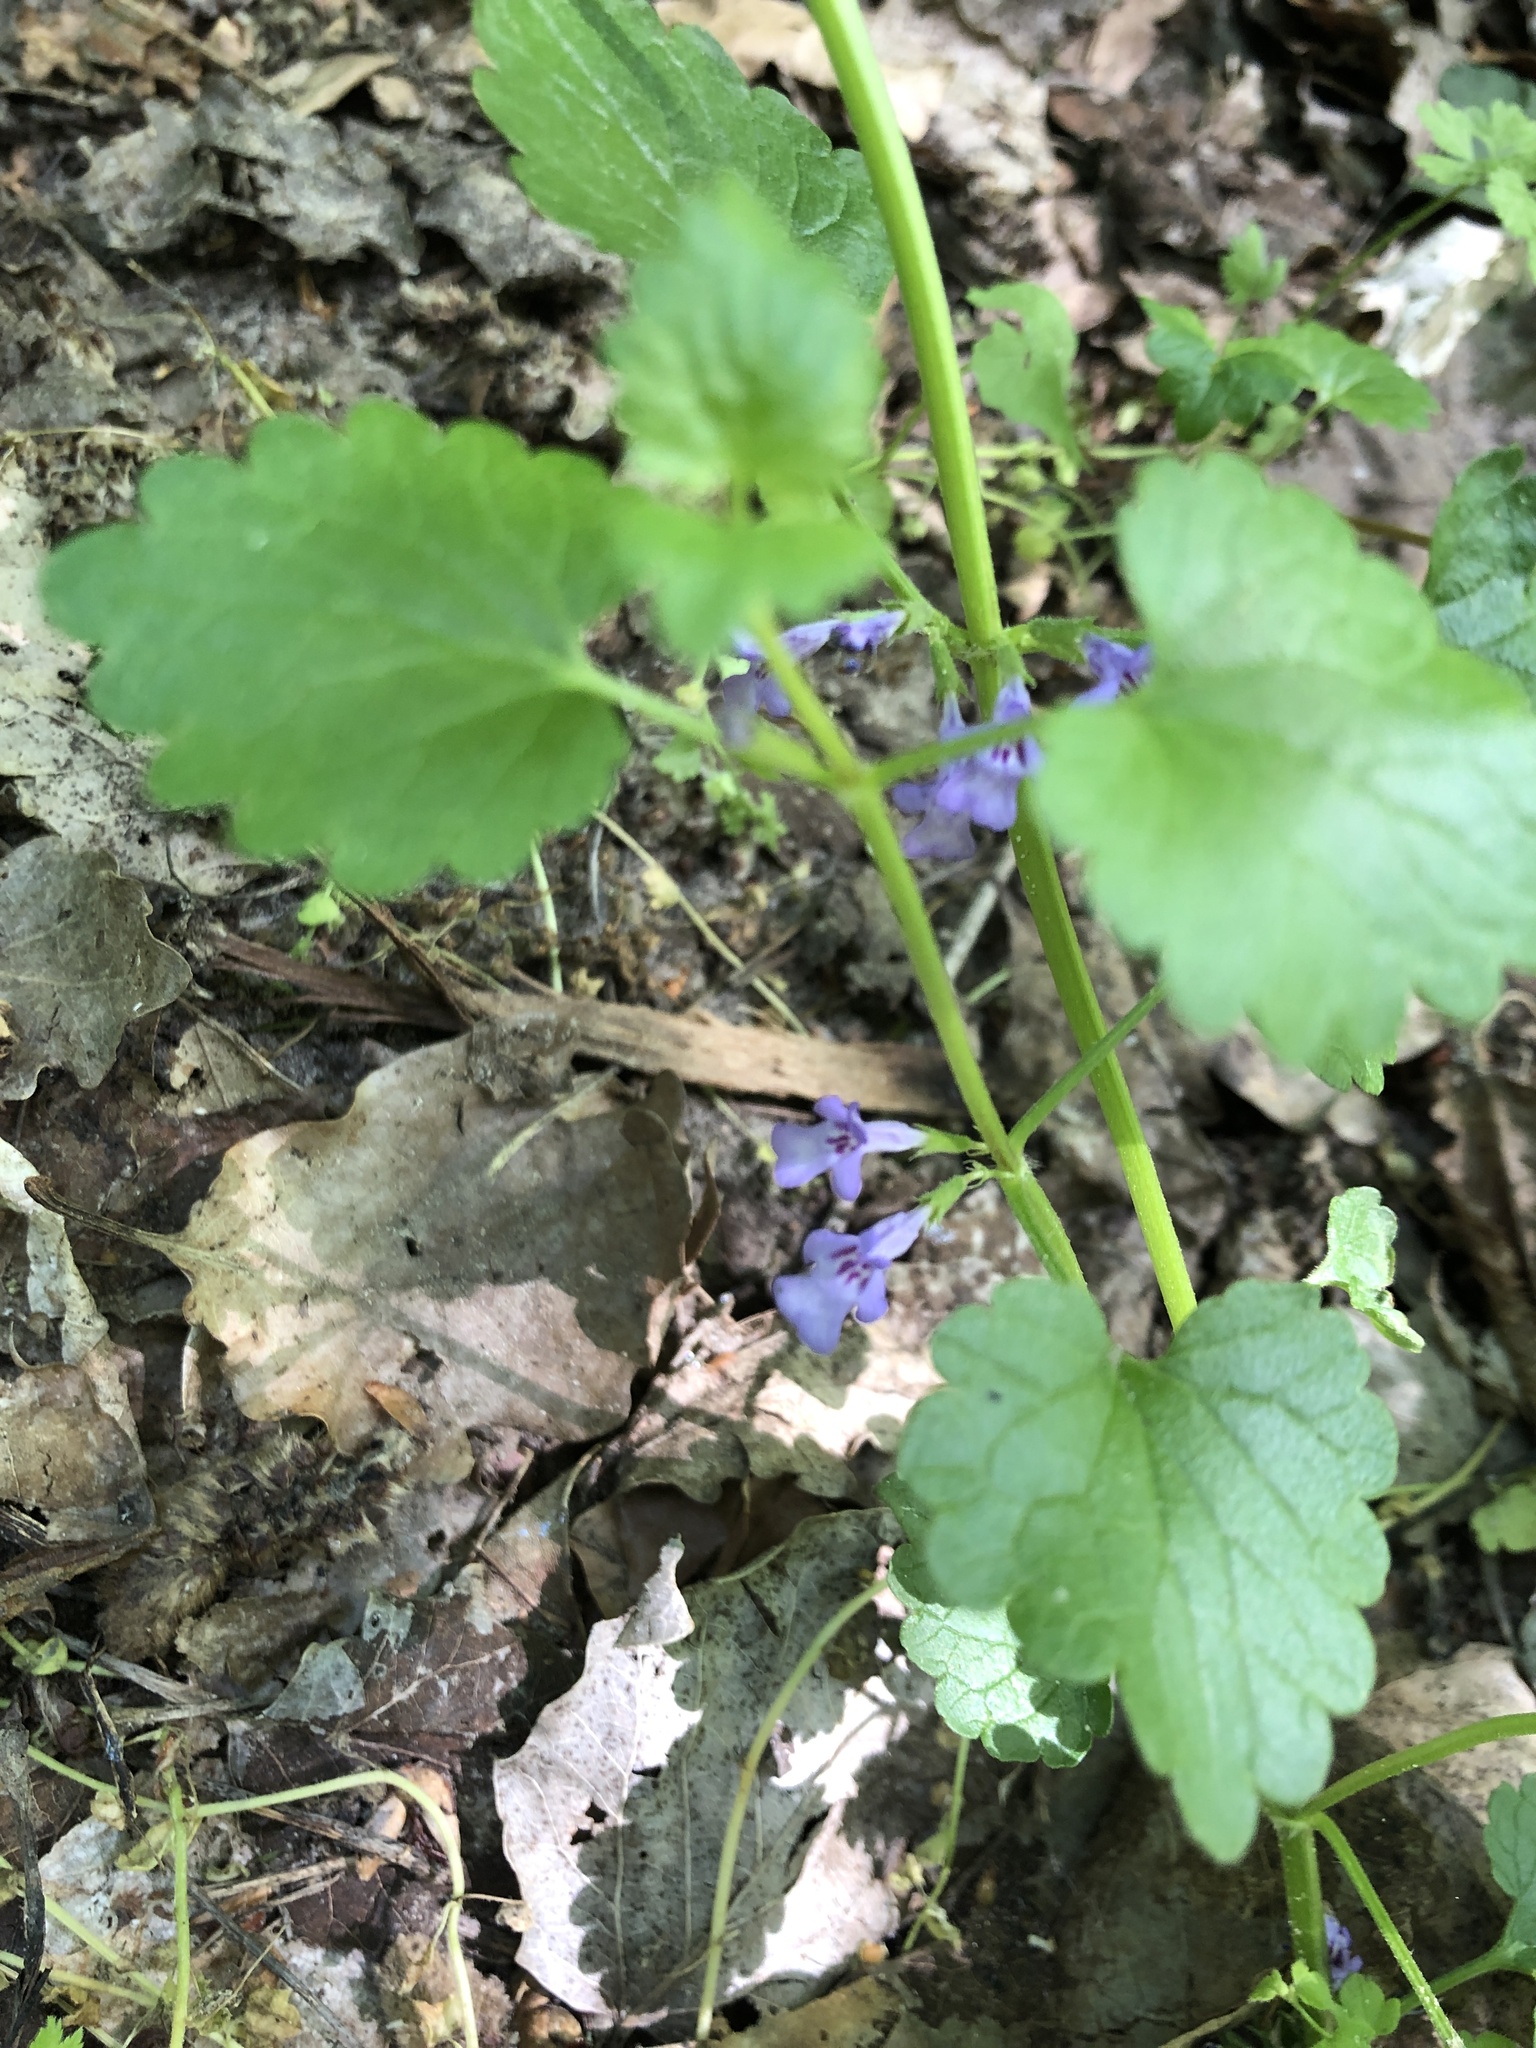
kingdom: Plantae
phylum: Tracheophyta
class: Magnoliopsida
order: Lamiales
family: Lamiaceae
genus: Glechoma
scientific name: Glechoma hederacea
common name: Ground ivy
